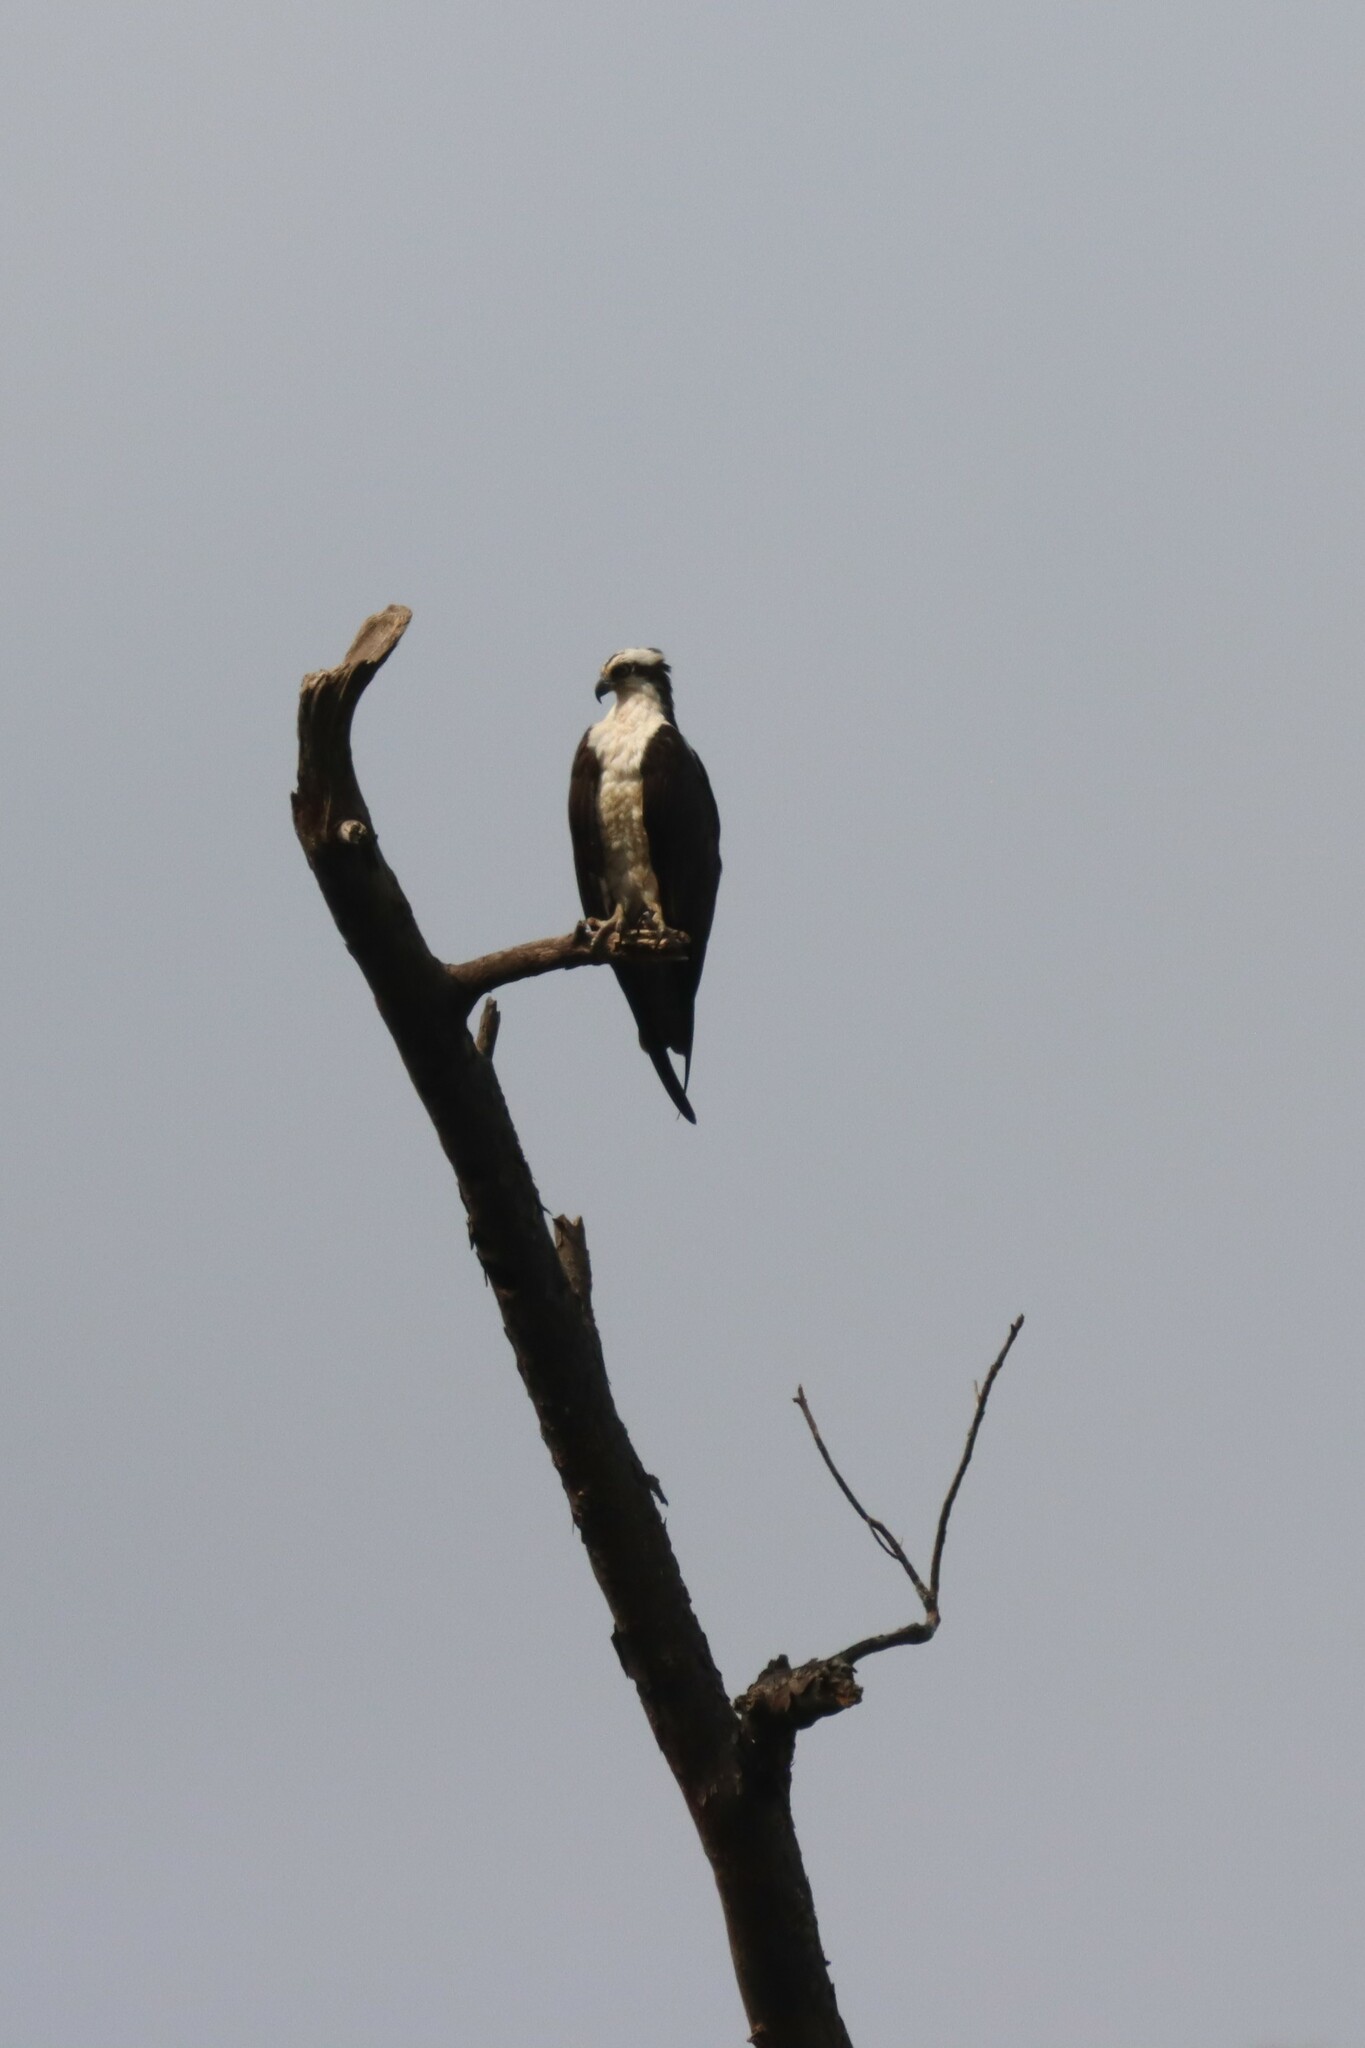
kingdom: Animalia
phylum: Chordata
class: Aves
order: Accipitriformes
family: Pandionidae
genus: Pandion
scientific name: Pandion haliaetus
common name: Osprey
